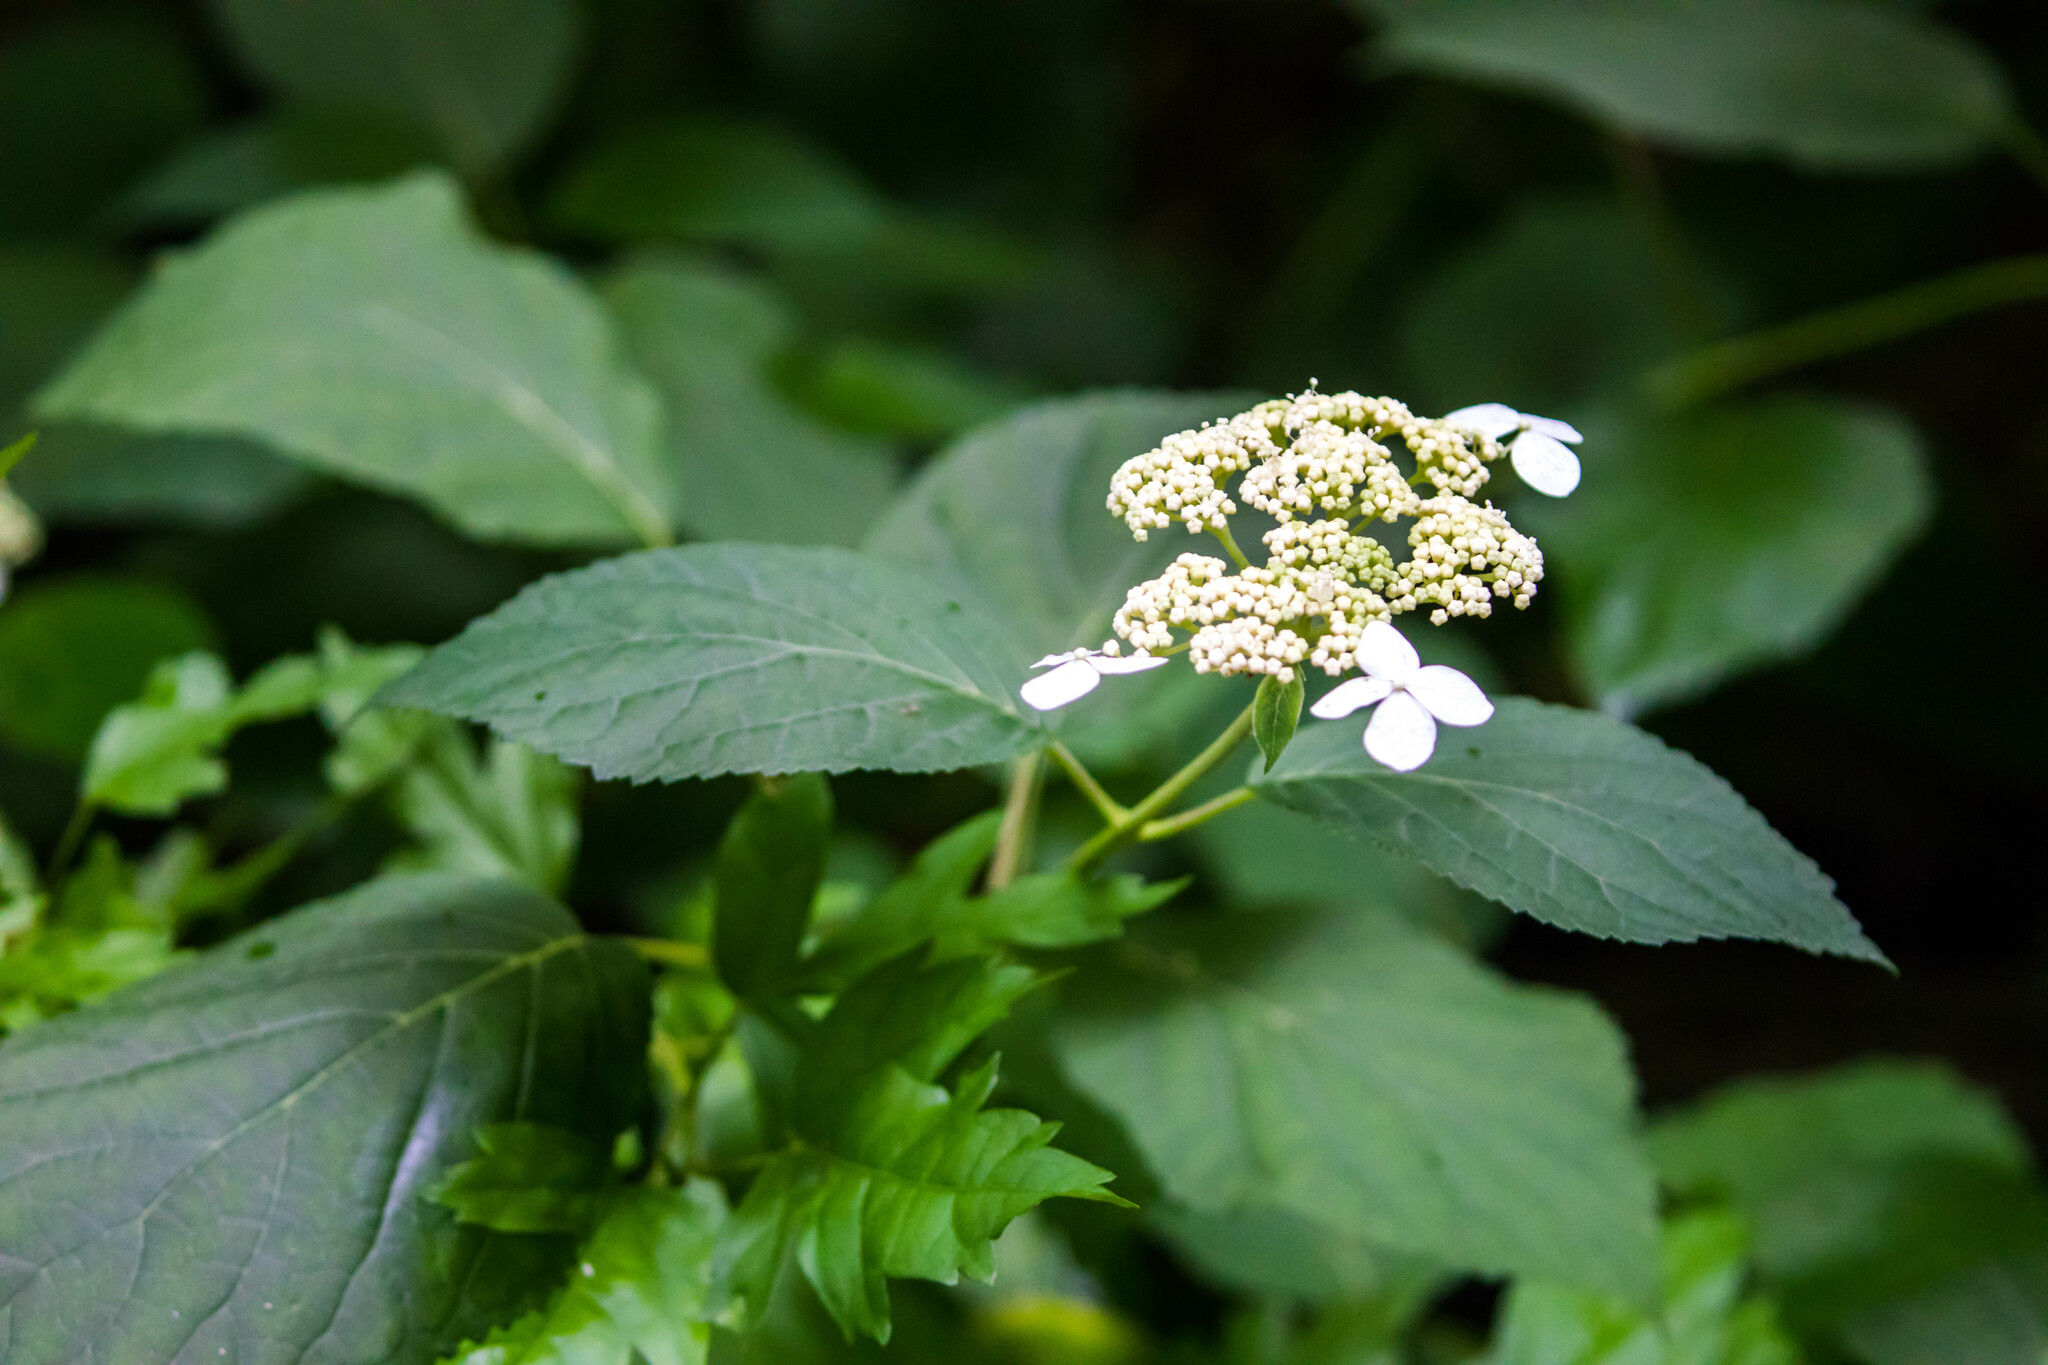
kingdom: Plantae
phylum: Tracheophyta
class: Magnoliopsida
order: Cornales
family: Hydrangeaceae
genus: Hydrangea
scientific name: Hydrangea arborescens
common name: Sevenbark
